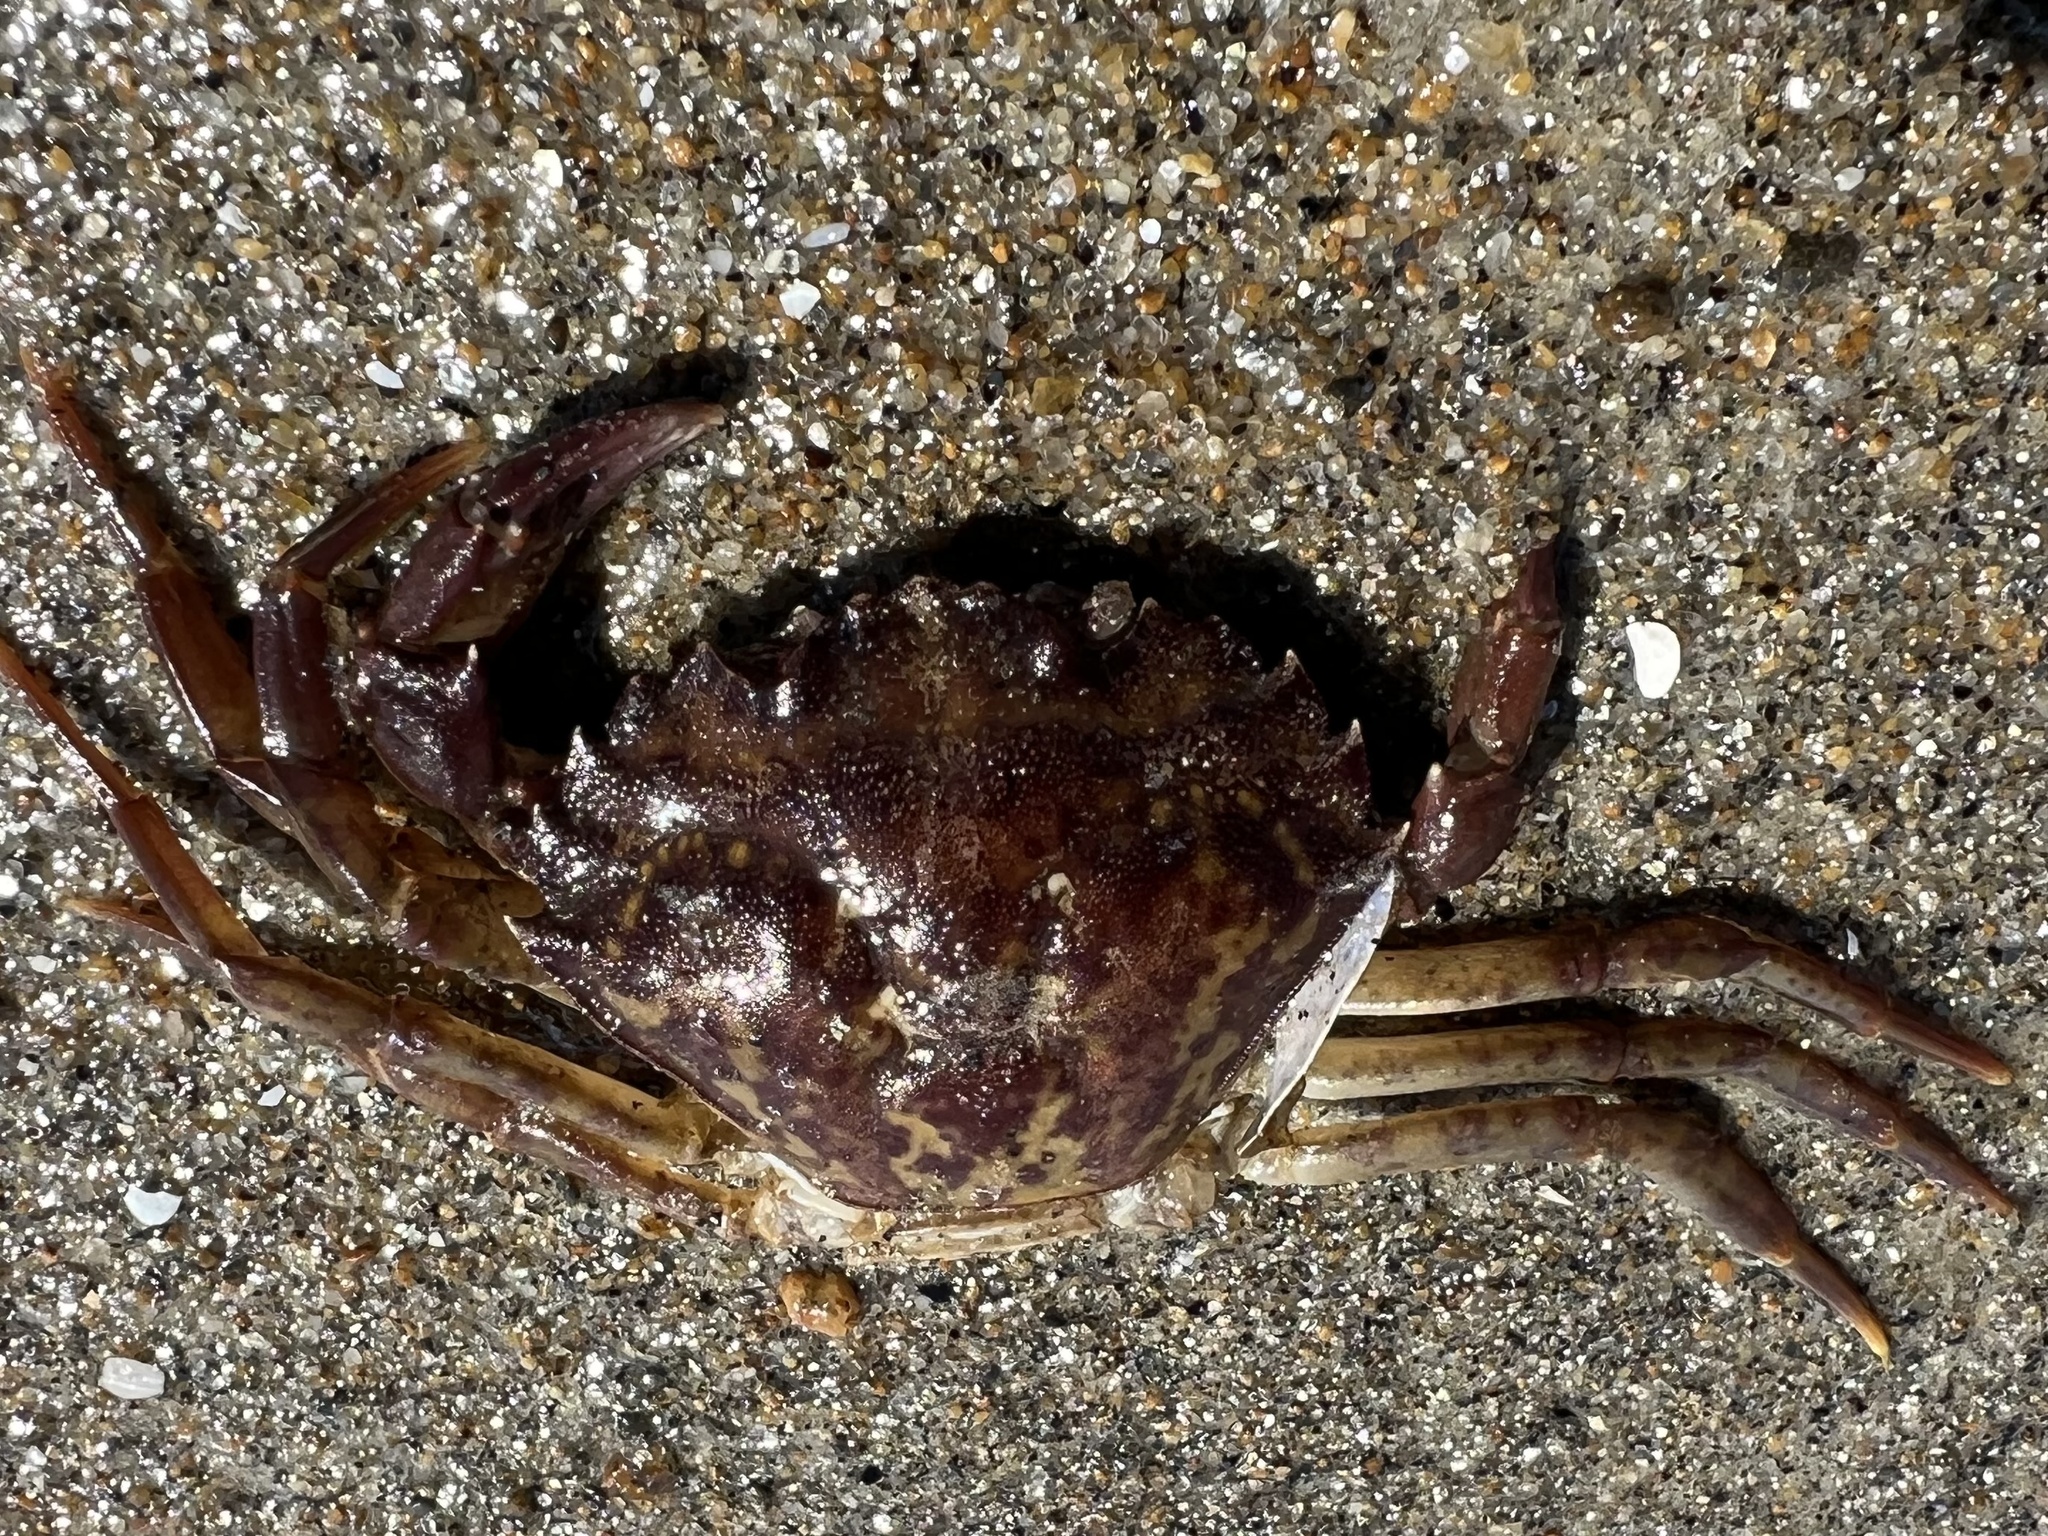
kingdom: Animalia
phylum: Arthropoda
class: Malacostraca
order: Decapoda
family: Carcinidae
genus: Carcinus
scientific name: Carcinus maenas
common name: European green crab
